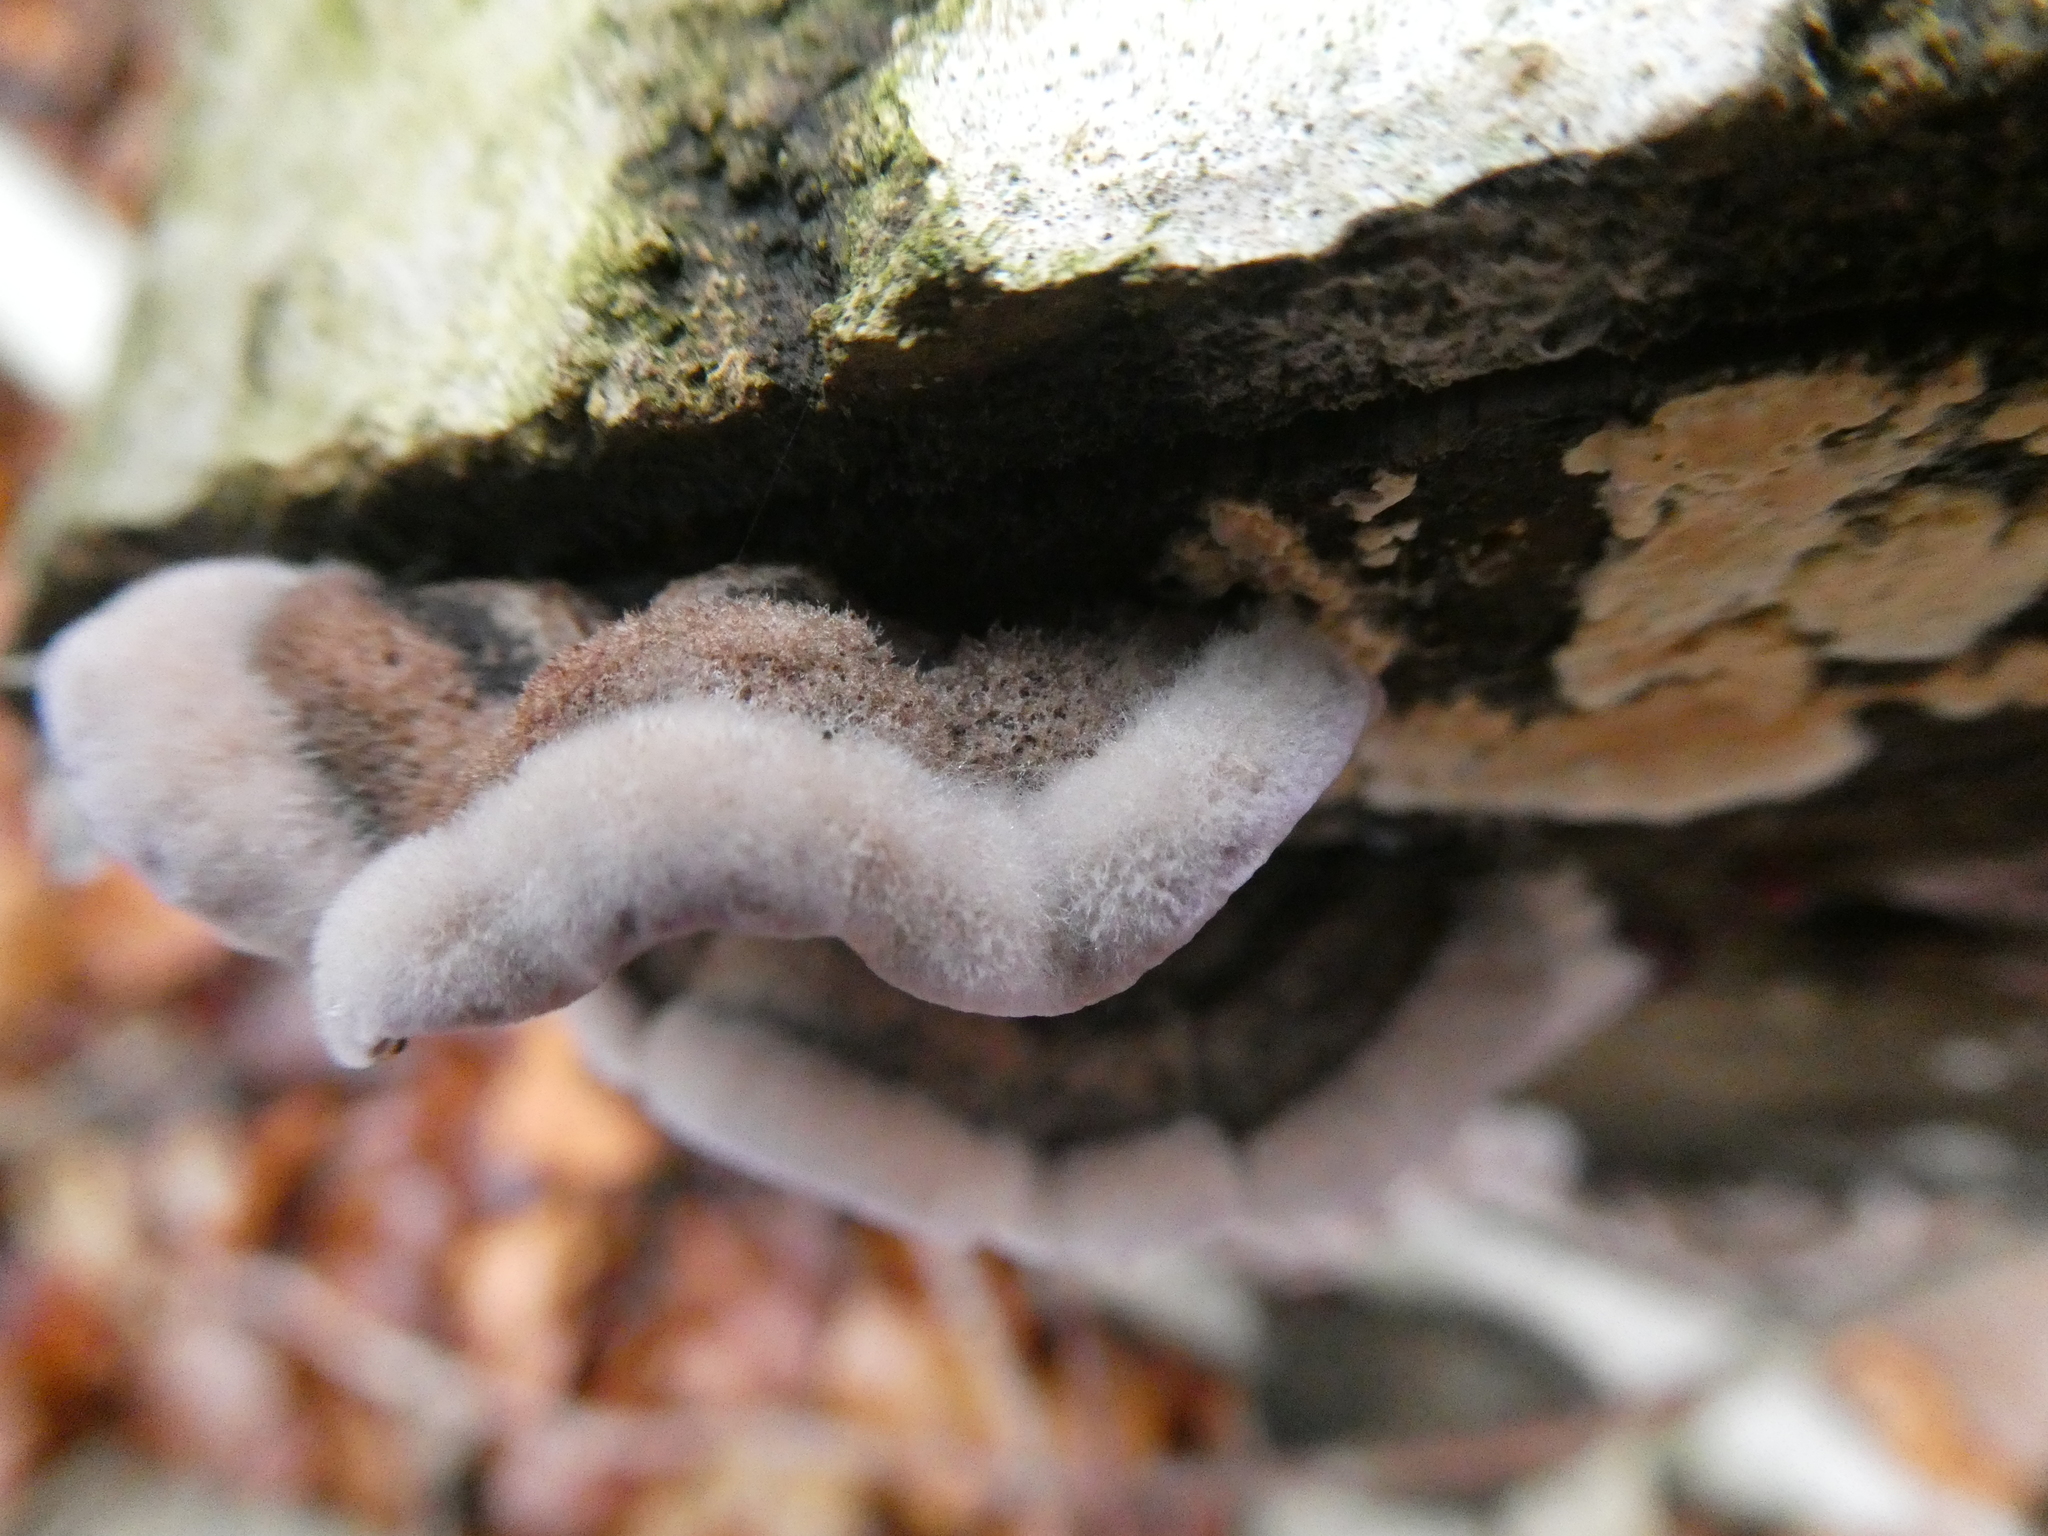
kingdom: Fungi
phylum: Basidiomycota
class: Agaricomycetes
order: Agaricales
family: Cyphellaceae
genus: Chondrostereum
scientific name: Chondrostereum purpureum
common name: Silver leaf disease
